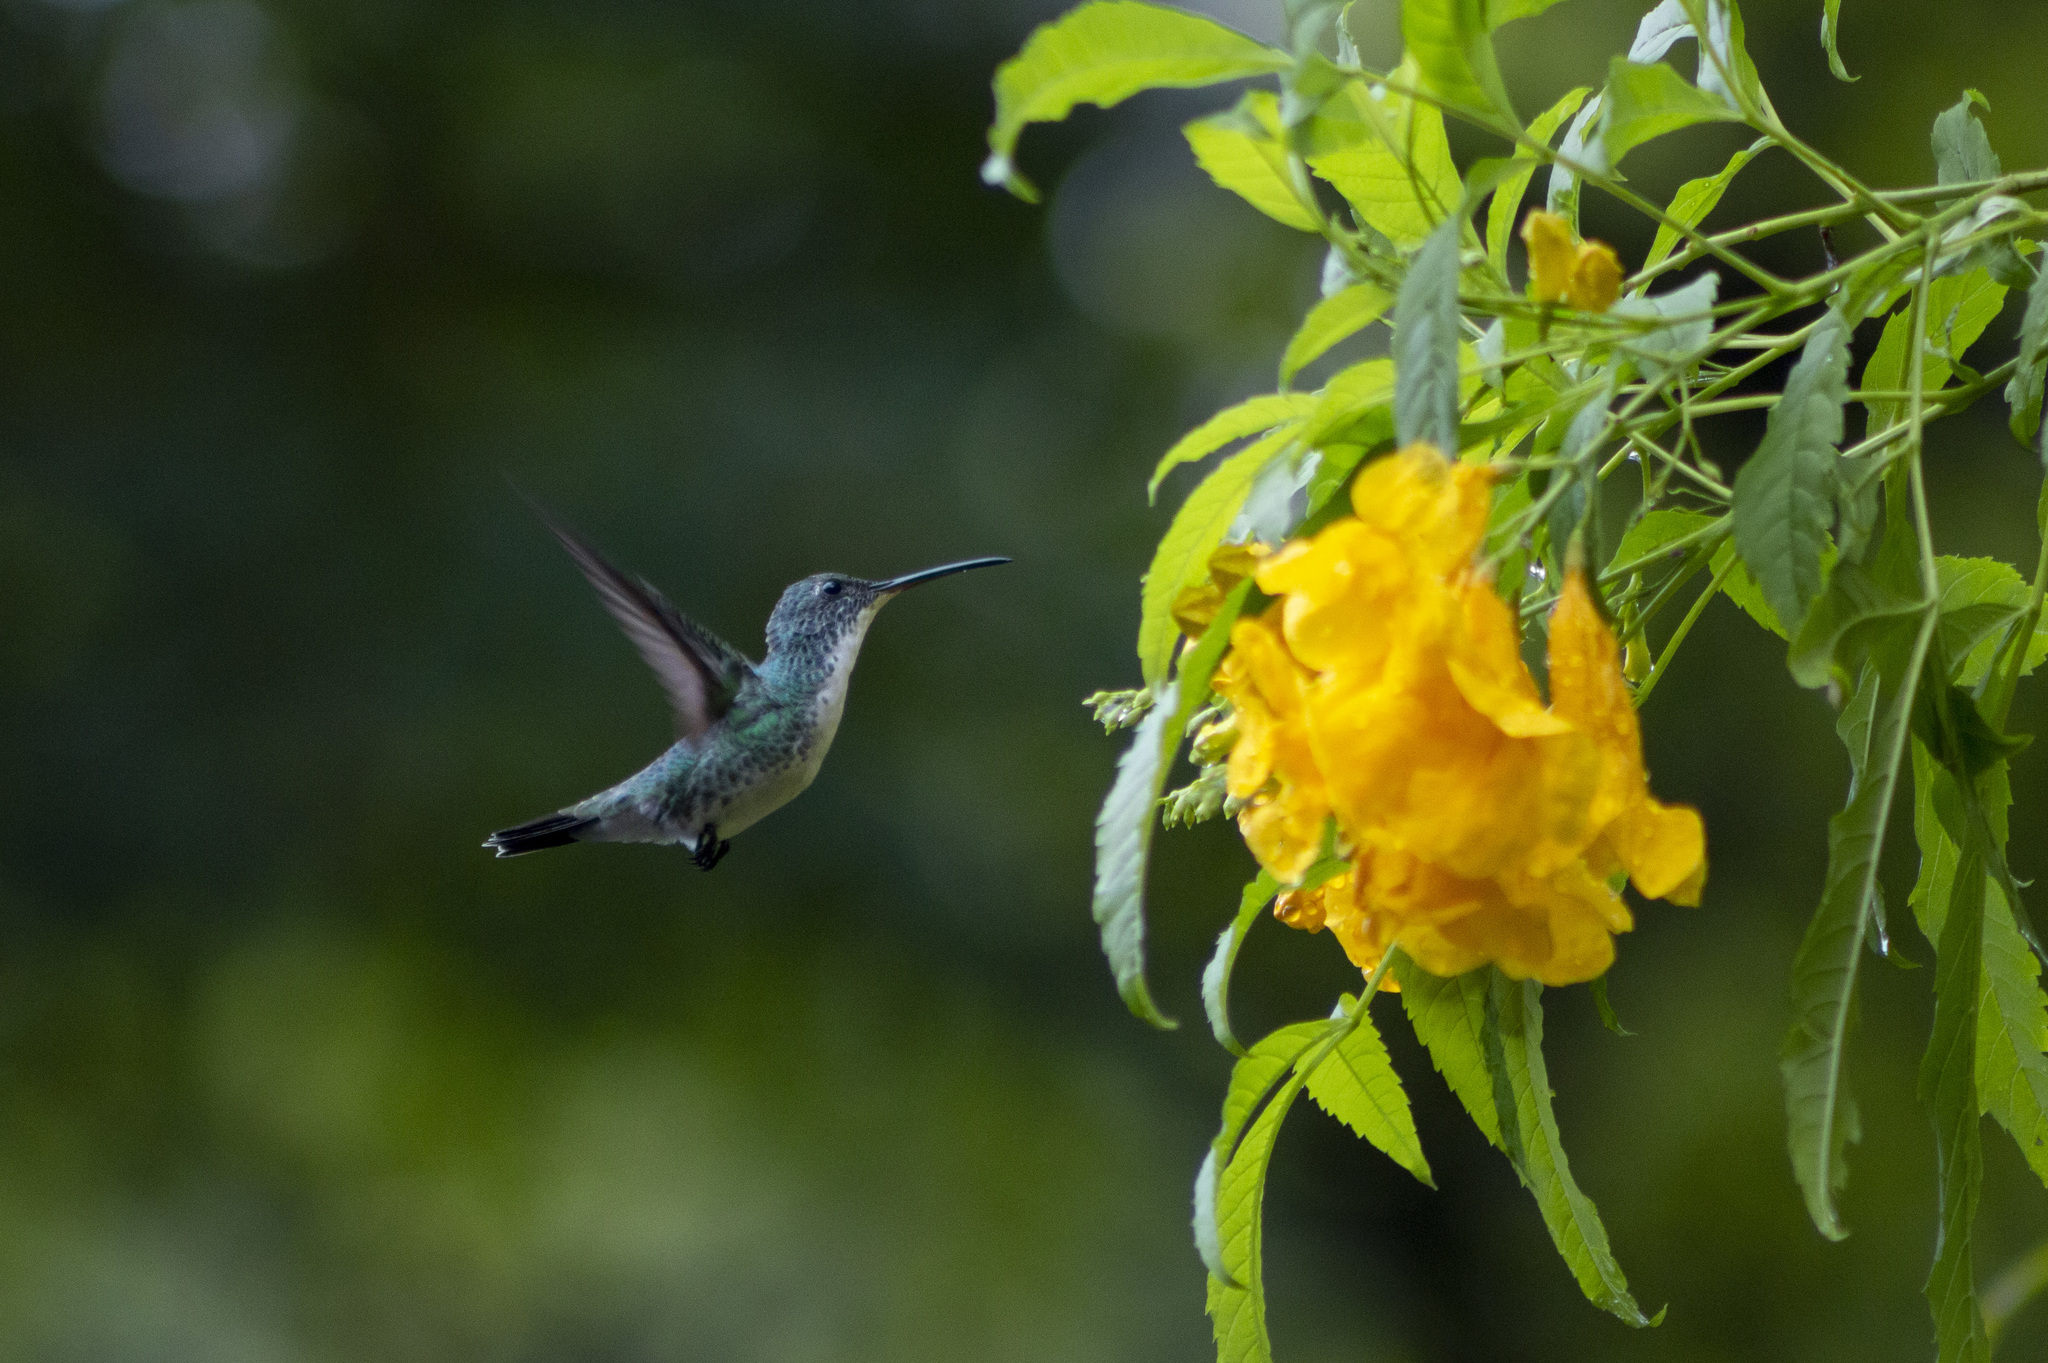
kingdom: Animalia
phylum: Chordata
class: Aves
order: Apodiformes
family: Trochilidae
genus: Chrysuronia
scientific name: Chrysuronia leucogaster
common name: Plain-bellied emerald
